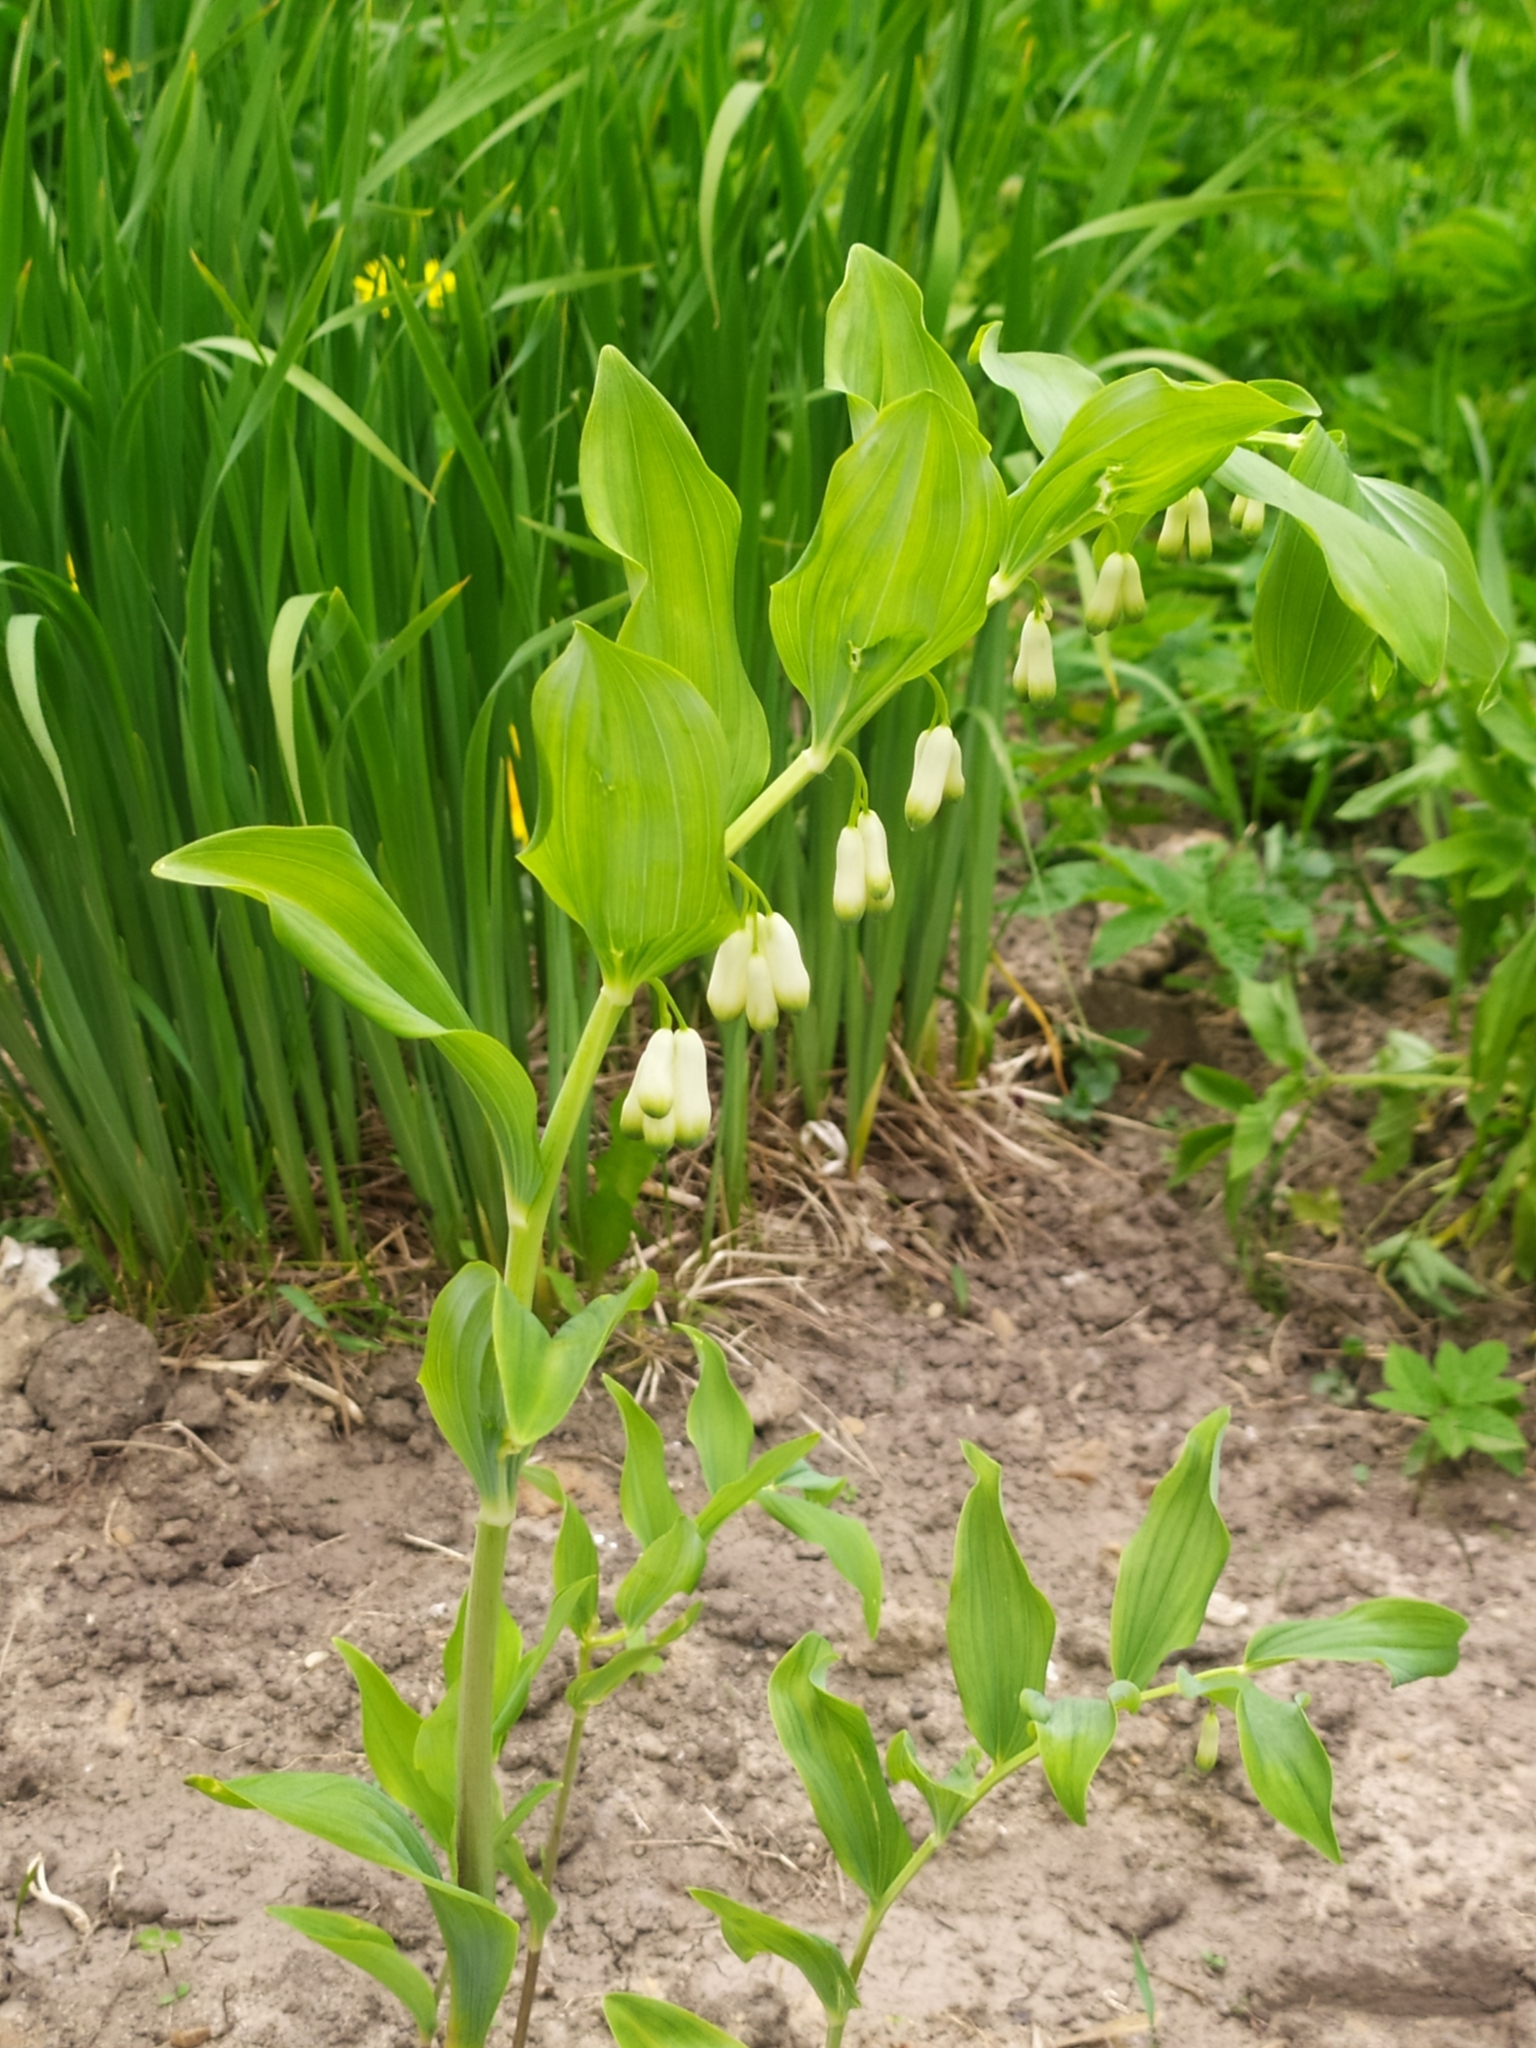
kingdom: Plantae
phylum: Tracheophyta
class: Liliopsida
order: Asparagales
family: Asparagaceae
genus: Polygonatum
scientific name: Polygonatum multiflorum
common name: Solomon's-seal
